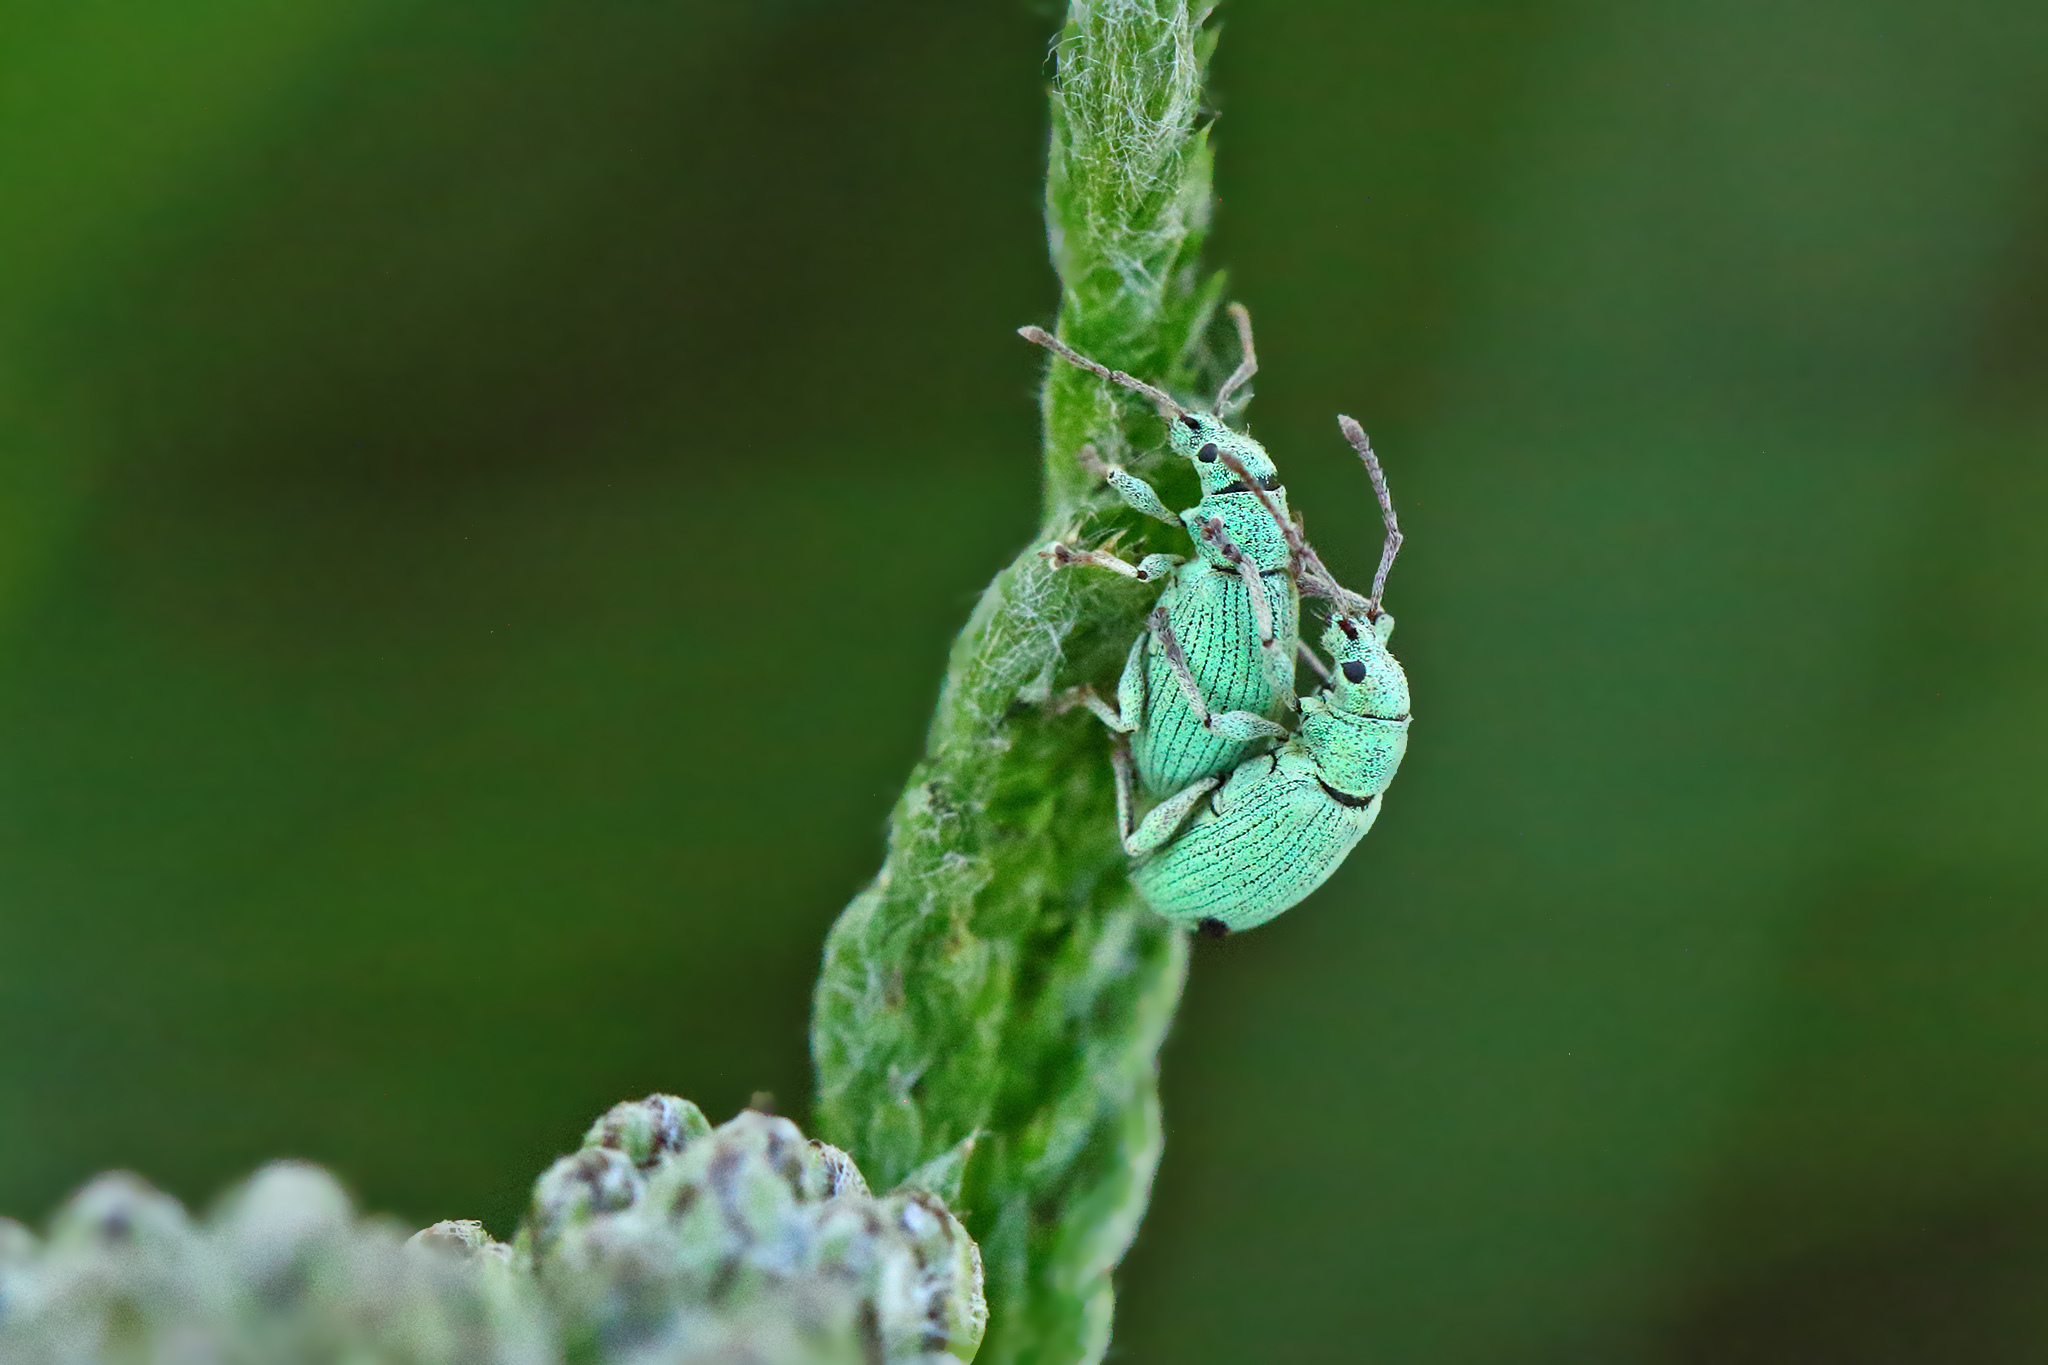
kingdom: Animalia
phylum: Arthropoda
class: Insecta
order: Coleoptera
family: Curculionidae
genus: Phyllobius
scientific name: Phyllobius virideaeris
